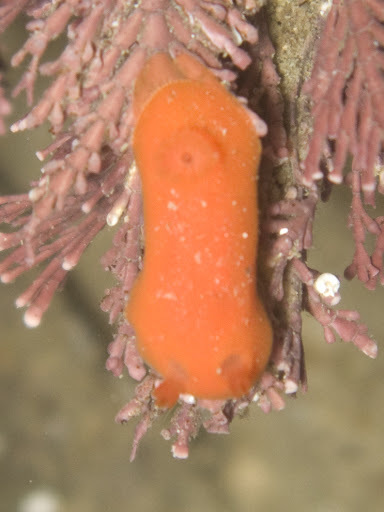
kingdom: Animalia
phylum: Mollusca
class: Gastropoda
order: Nudibranchia
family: Discodorididae
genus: Rostanga
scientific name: Rostanga pulchra
